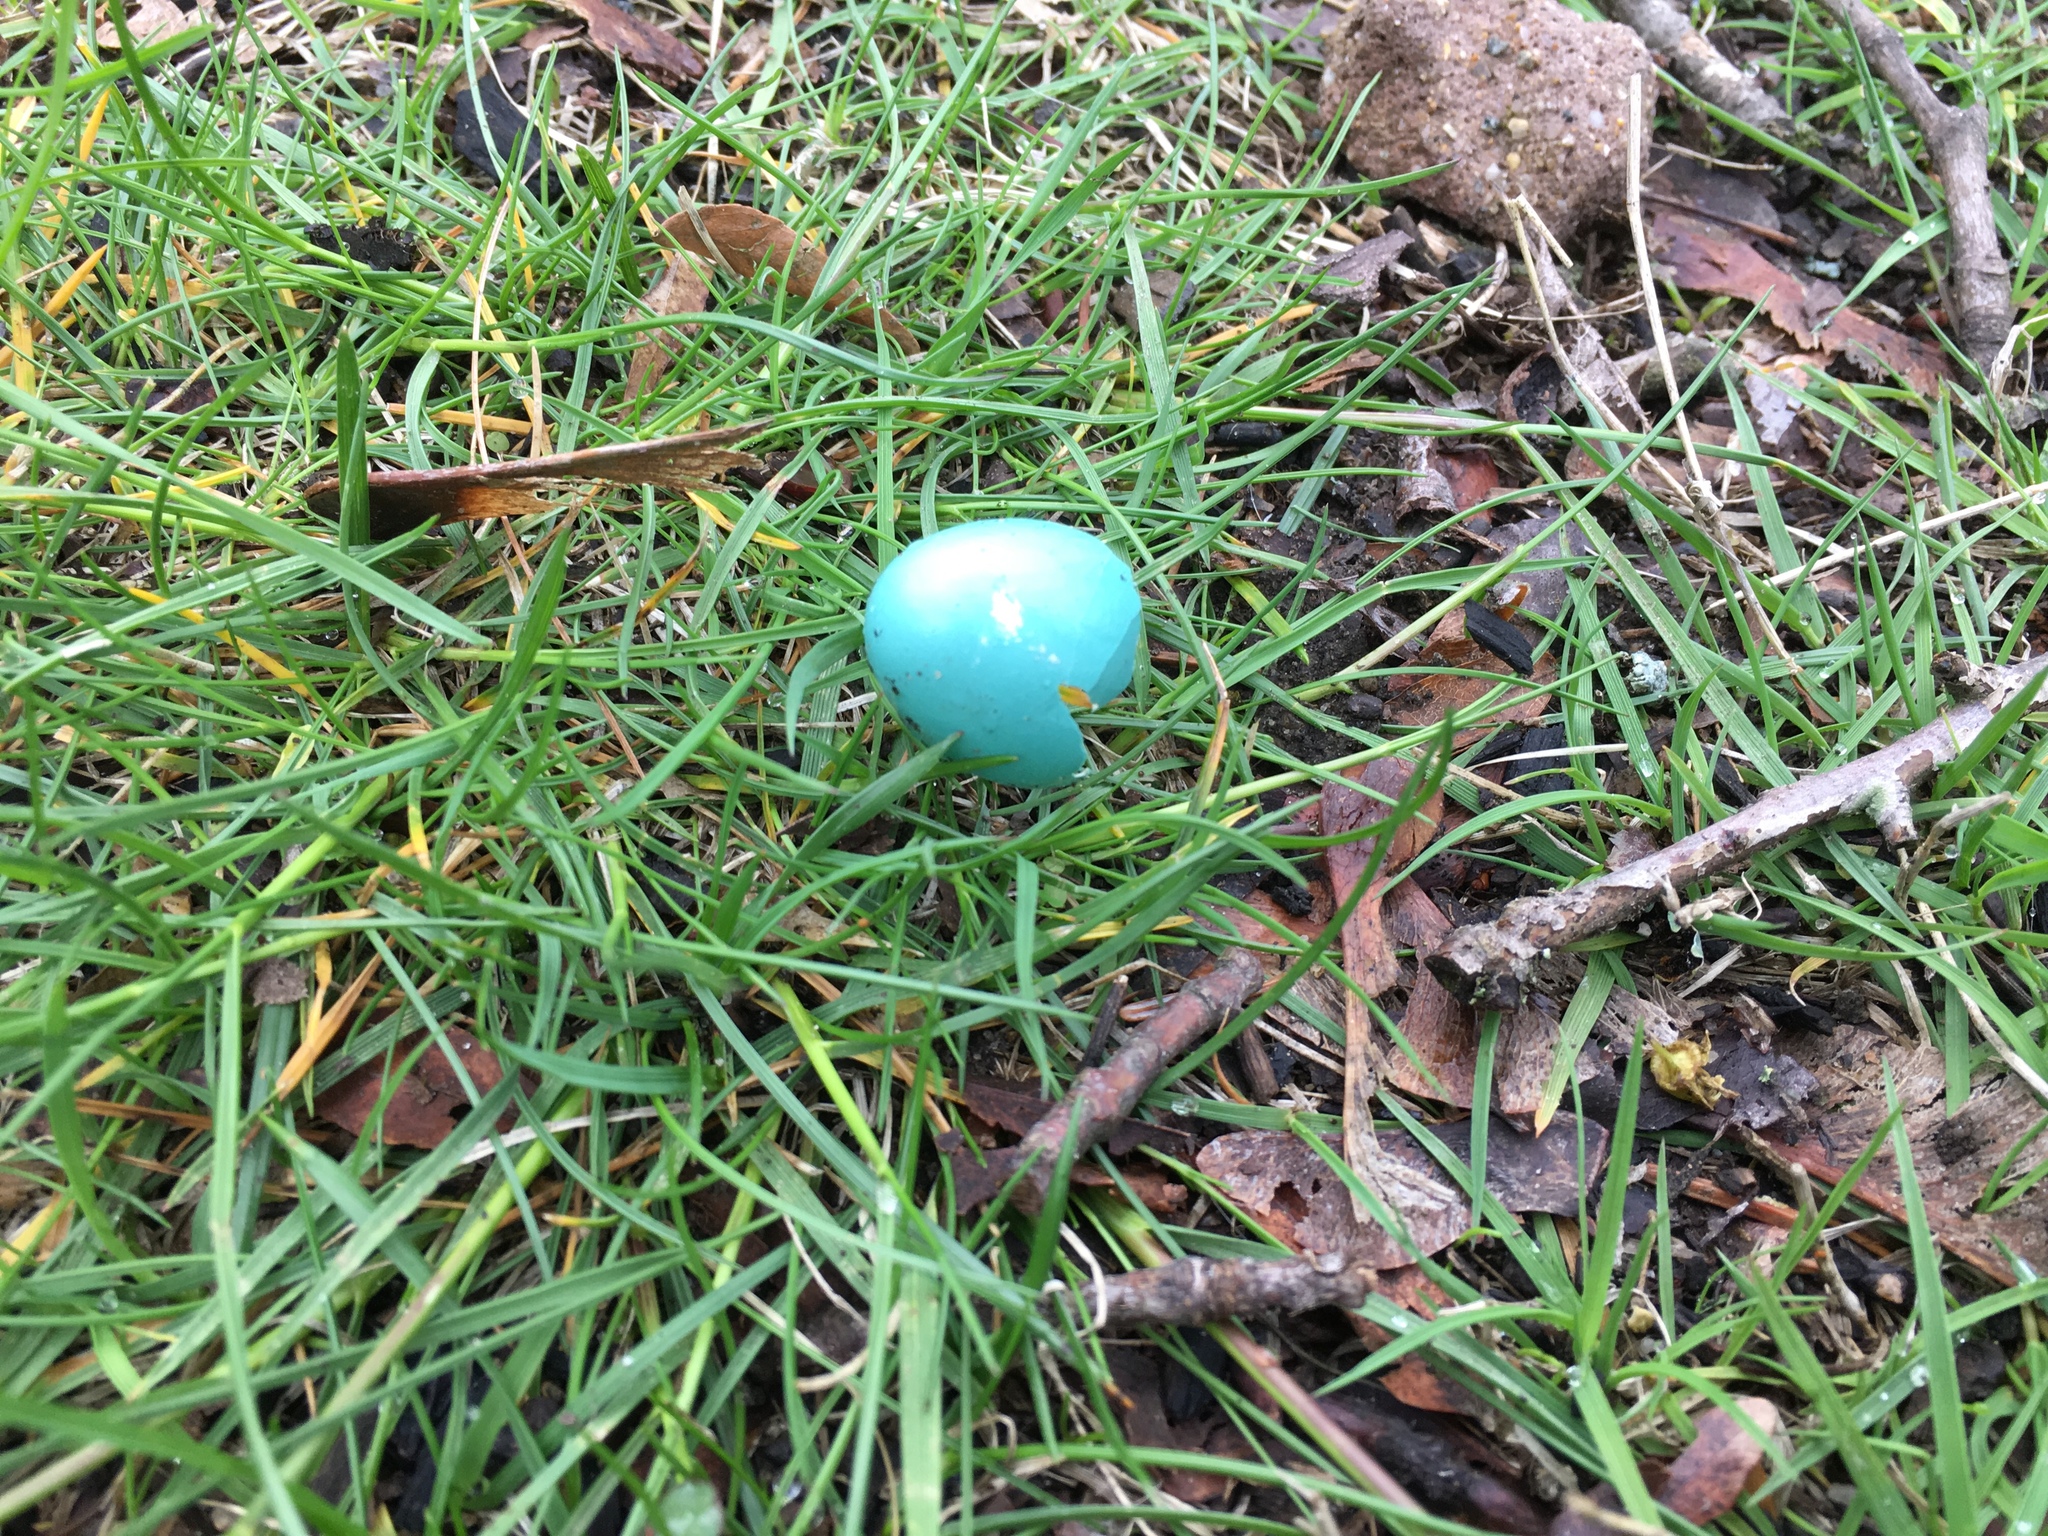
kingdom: Animalia
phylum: Chordata
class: Aves
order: Passeriformes
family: Turdidae
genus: Turdus
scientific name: Turdus migratorius
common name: American robin
